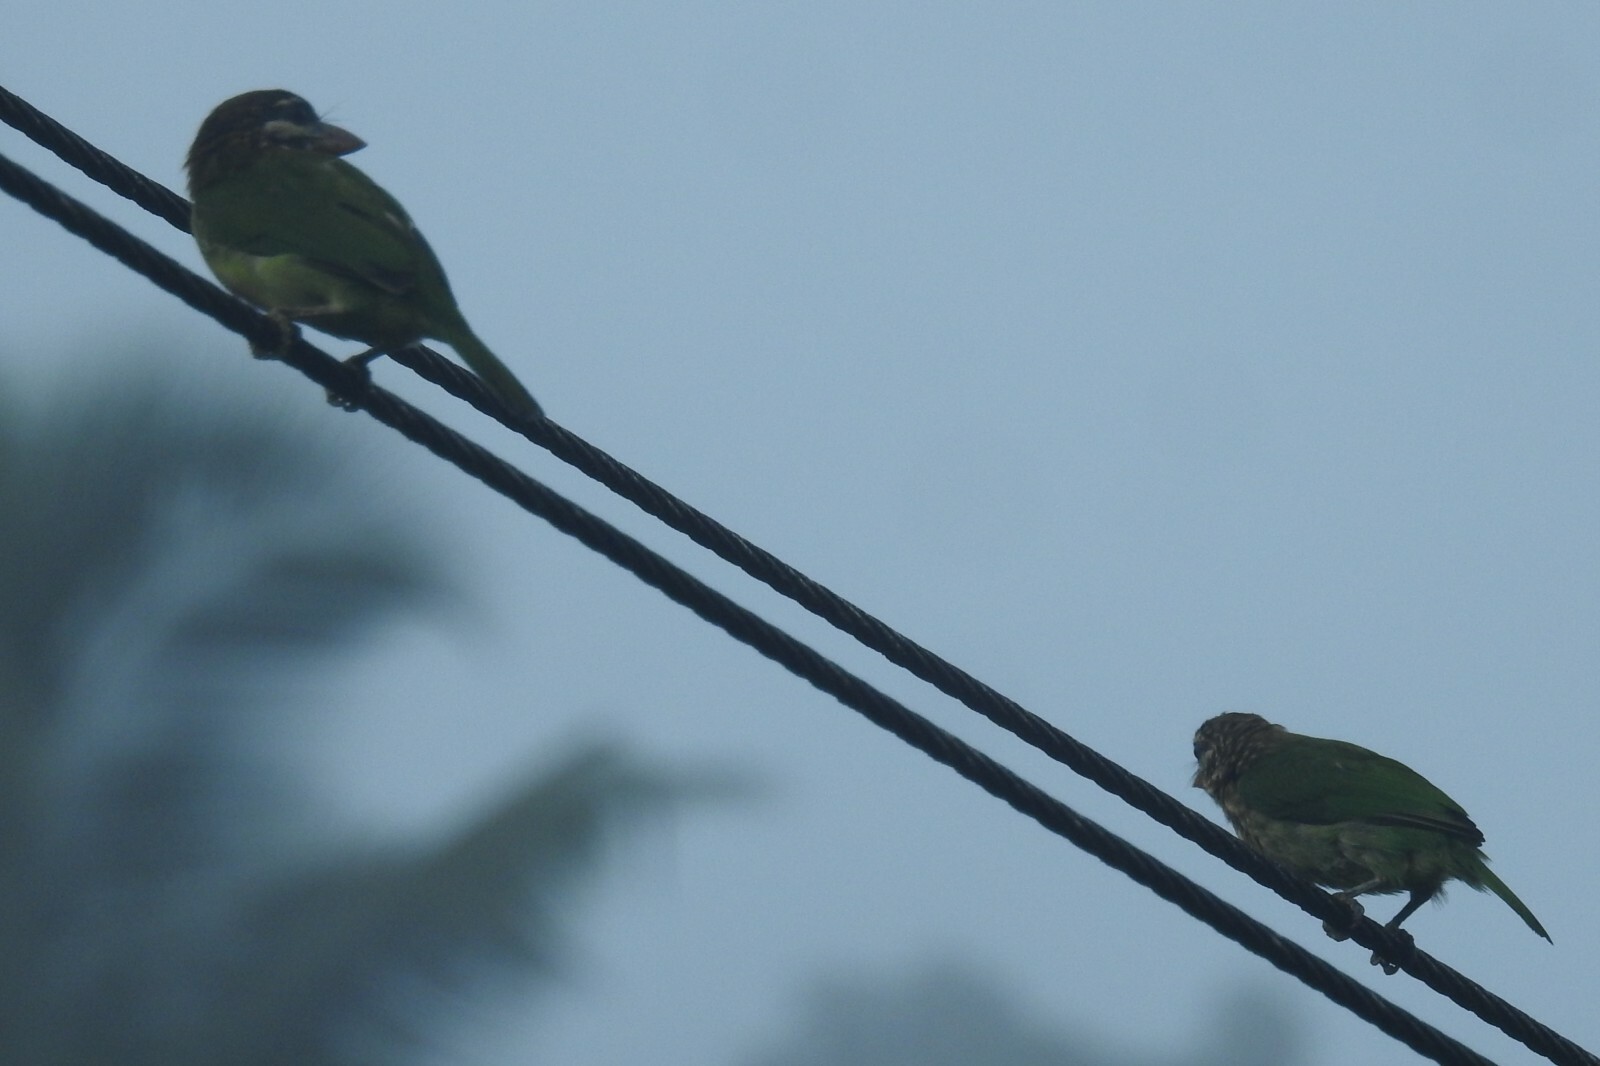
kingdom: Animalia
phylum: Chordata
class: Aves
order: Piciformes
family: Megalaimidae
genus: Psilopogon
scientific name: Psilopogon viridis
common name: White-cheeked barbet
